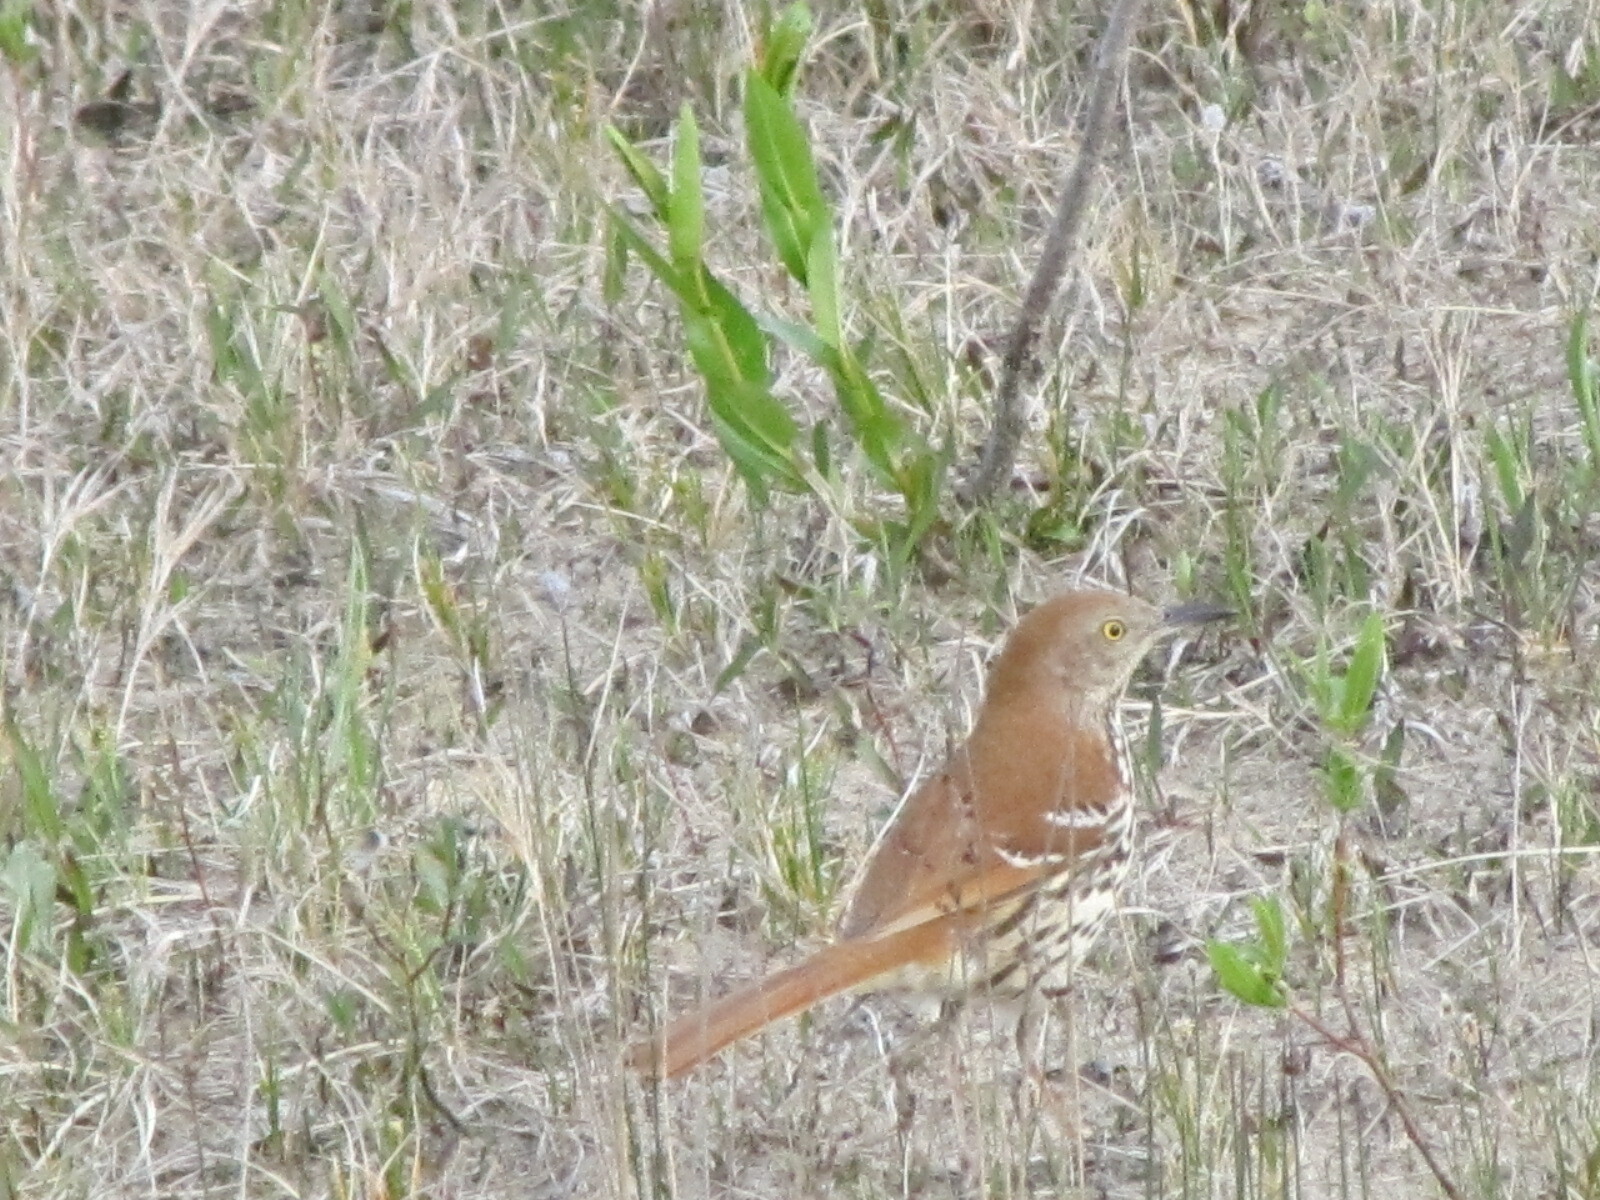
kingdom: Animalia
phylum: Chordata
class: Aves
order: Passeriformes
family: Mimidae
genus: Toxostoma
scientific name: Toxostoma rufum
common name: Brown thrasher
